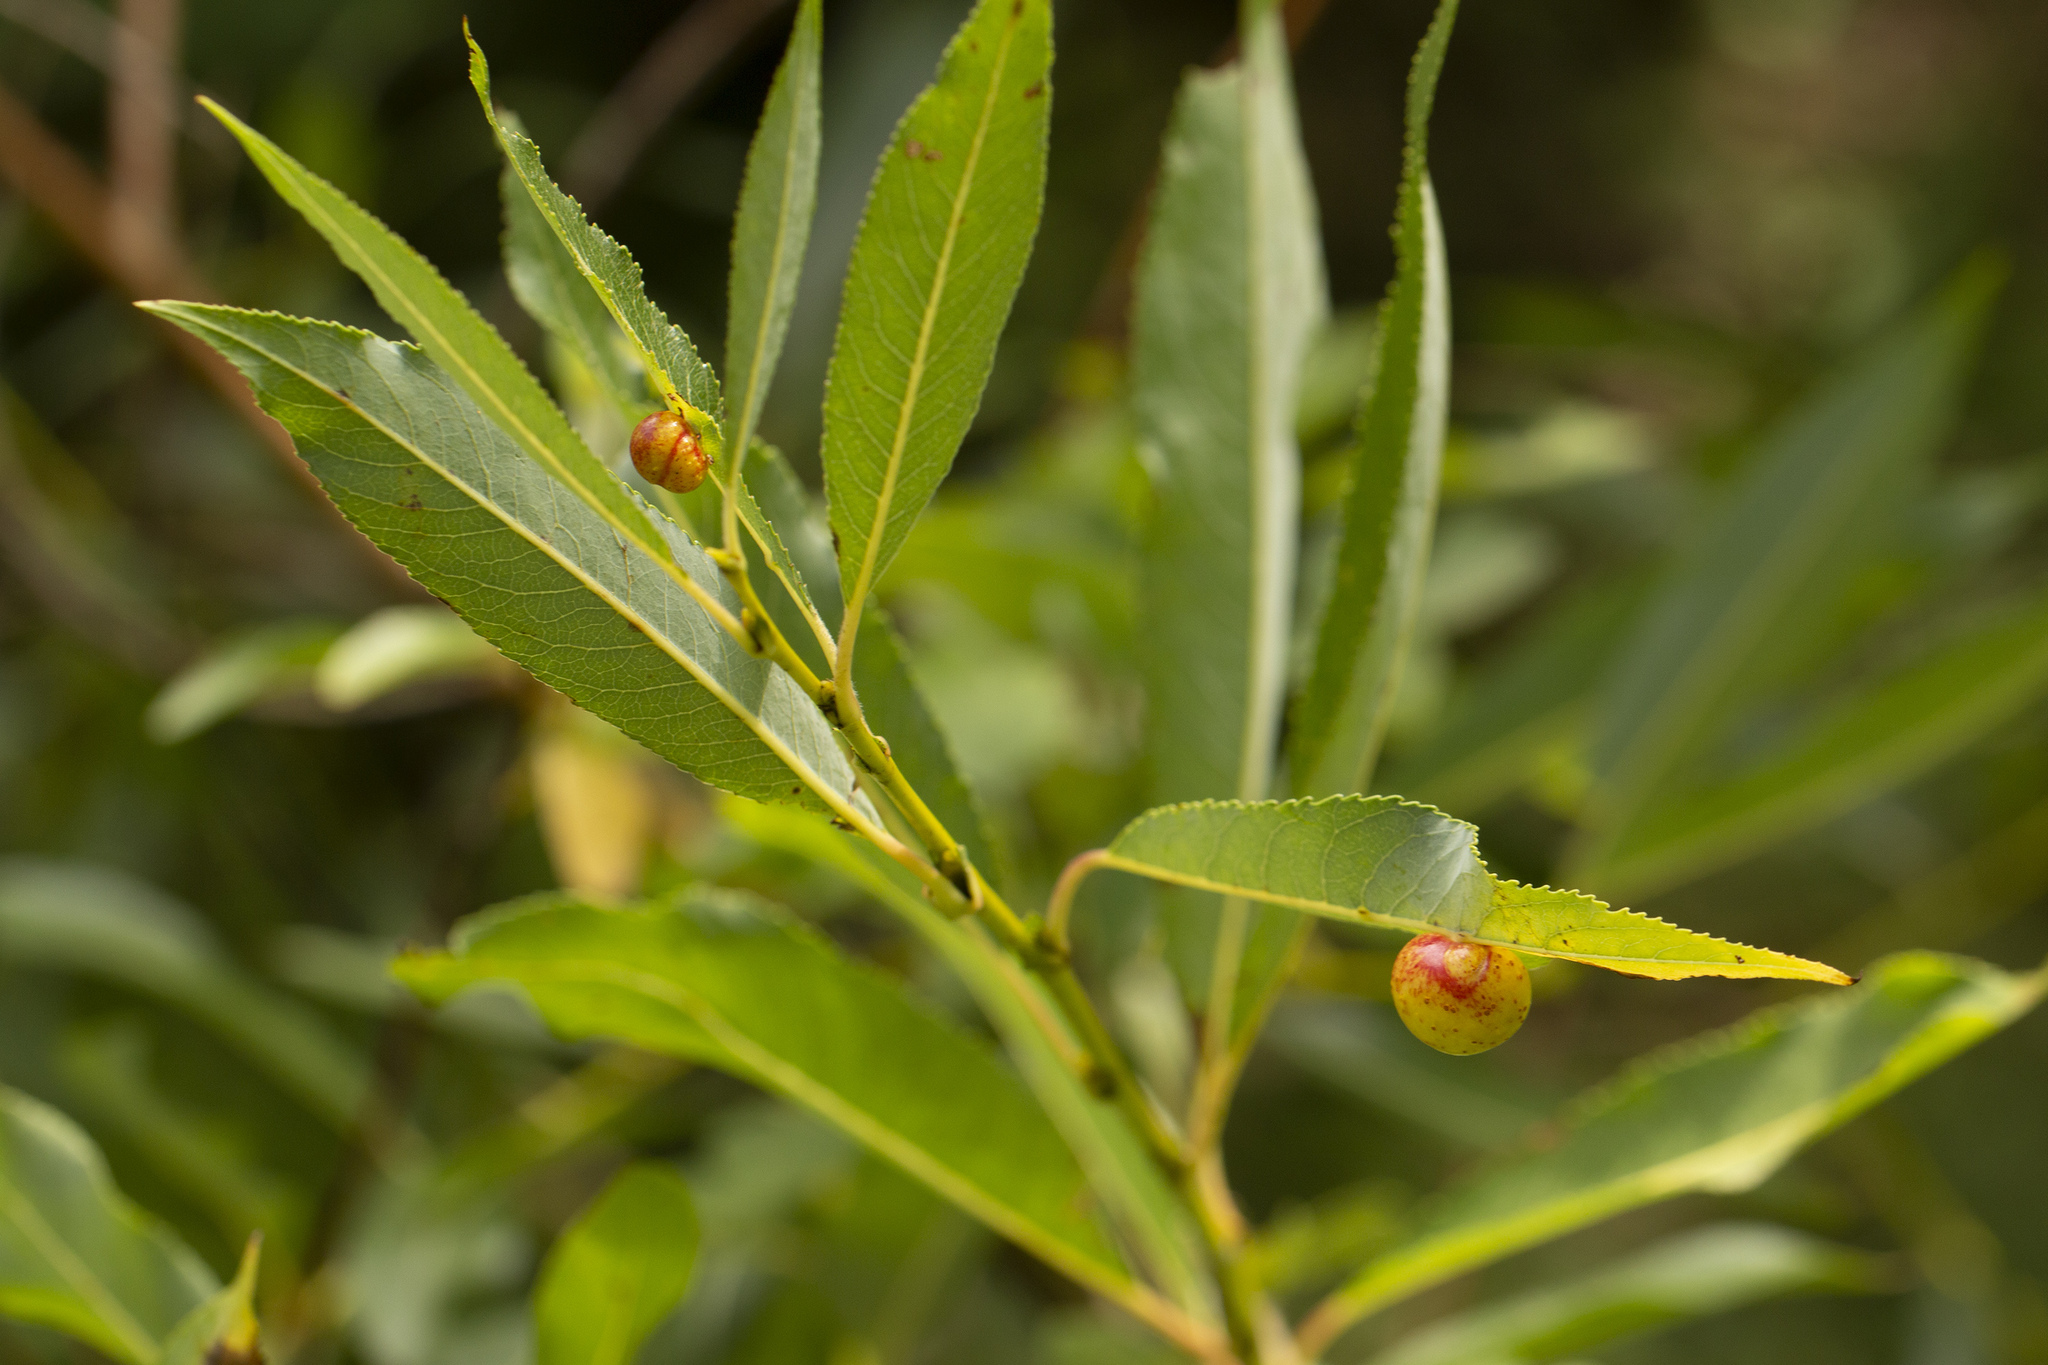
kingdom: Animalia
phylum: Arthropoda
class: Insecta
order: Hymenoptera
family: Tenthredinidae
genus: Euura
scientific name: Euura acutifoliae
